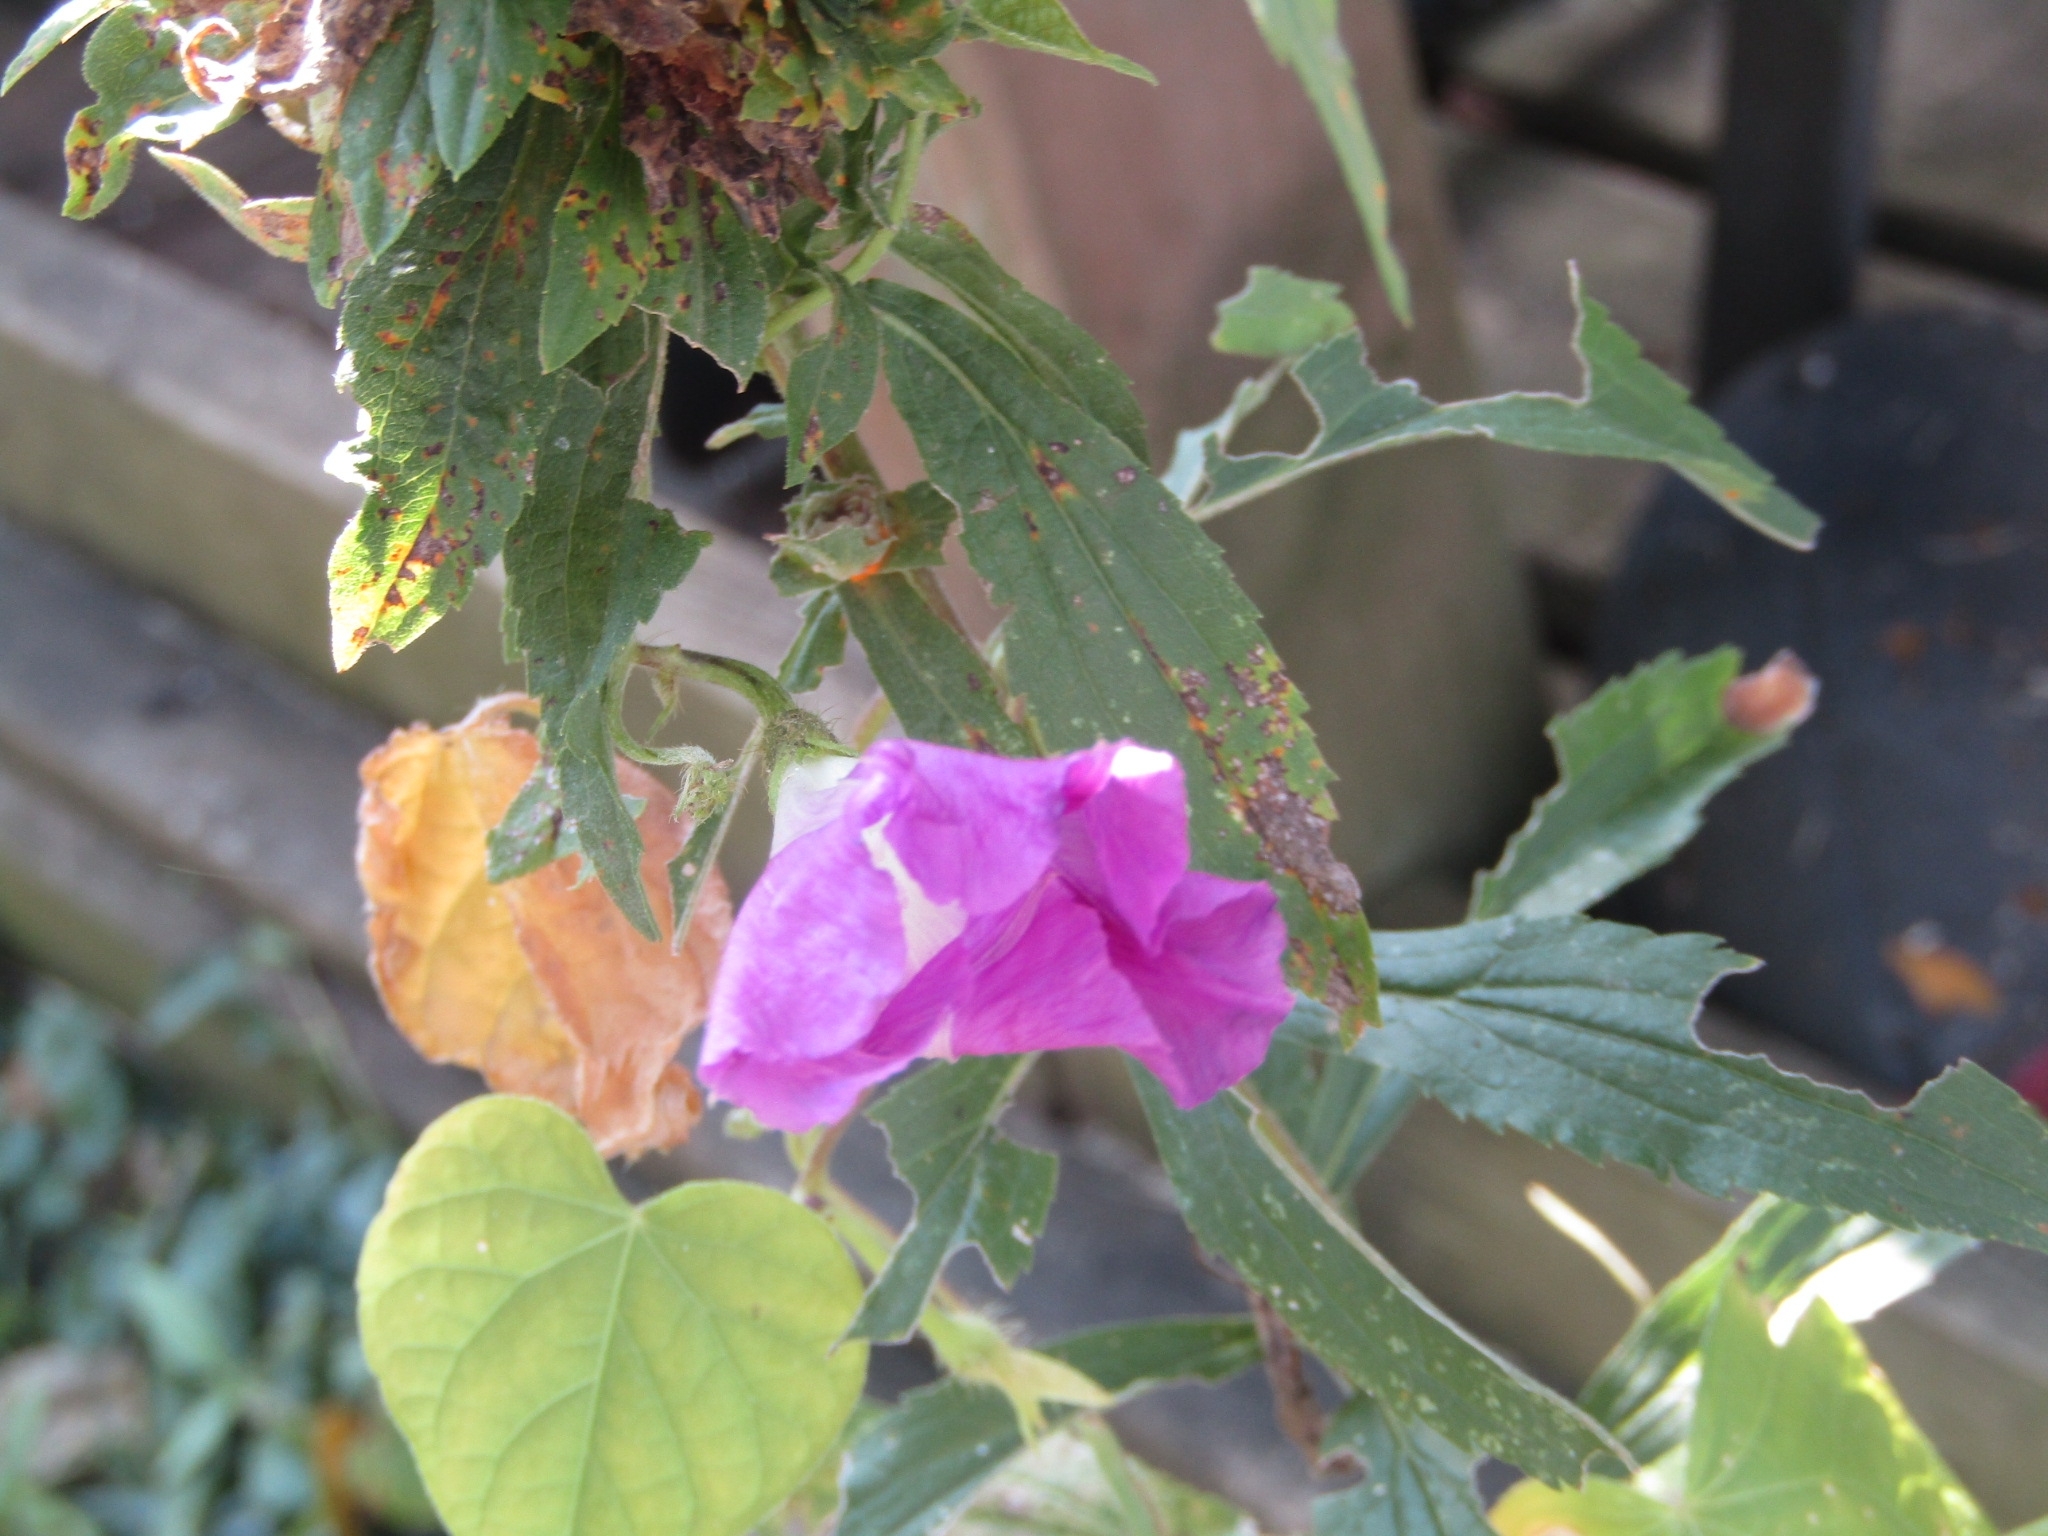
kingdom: Plantae
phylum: Tracheophyta
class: Magnoliopsida
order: Solanales
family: Convolvulaceae
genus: Ipomoea
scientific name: Ipomoea purpurea
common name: Common morning-glory
